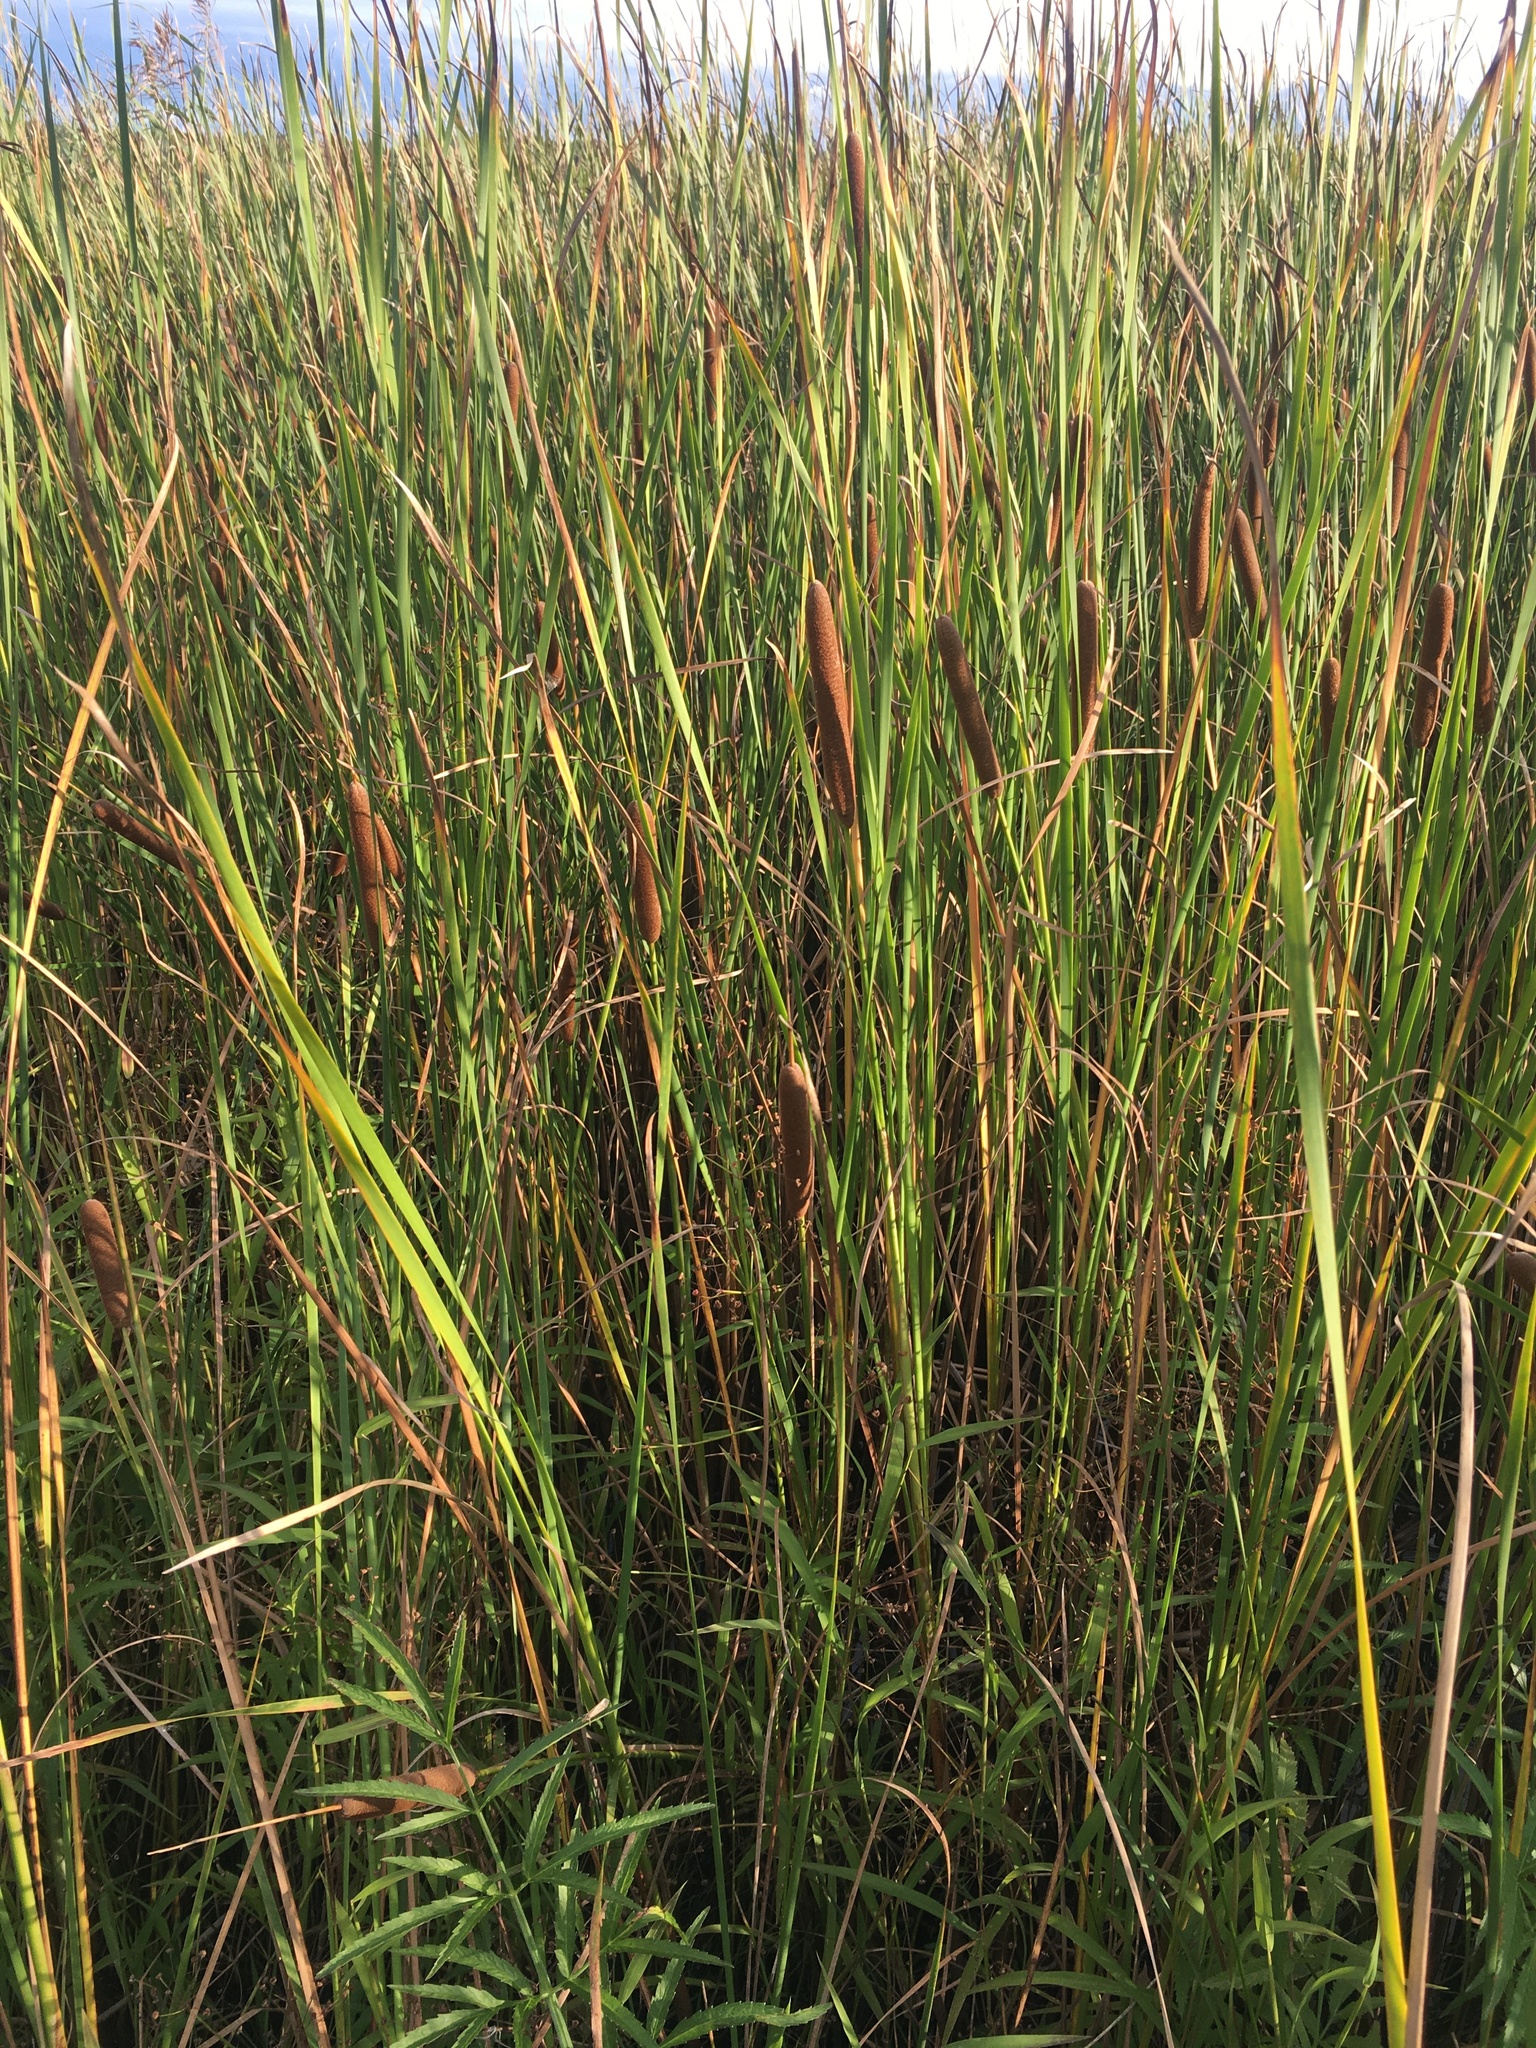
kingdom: Plantae
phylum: Tracheophyta
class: Liliopsida
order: Poales
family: Typhaceae
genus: Typha
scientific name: Typha angustifolia
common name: Lesser bulrush
